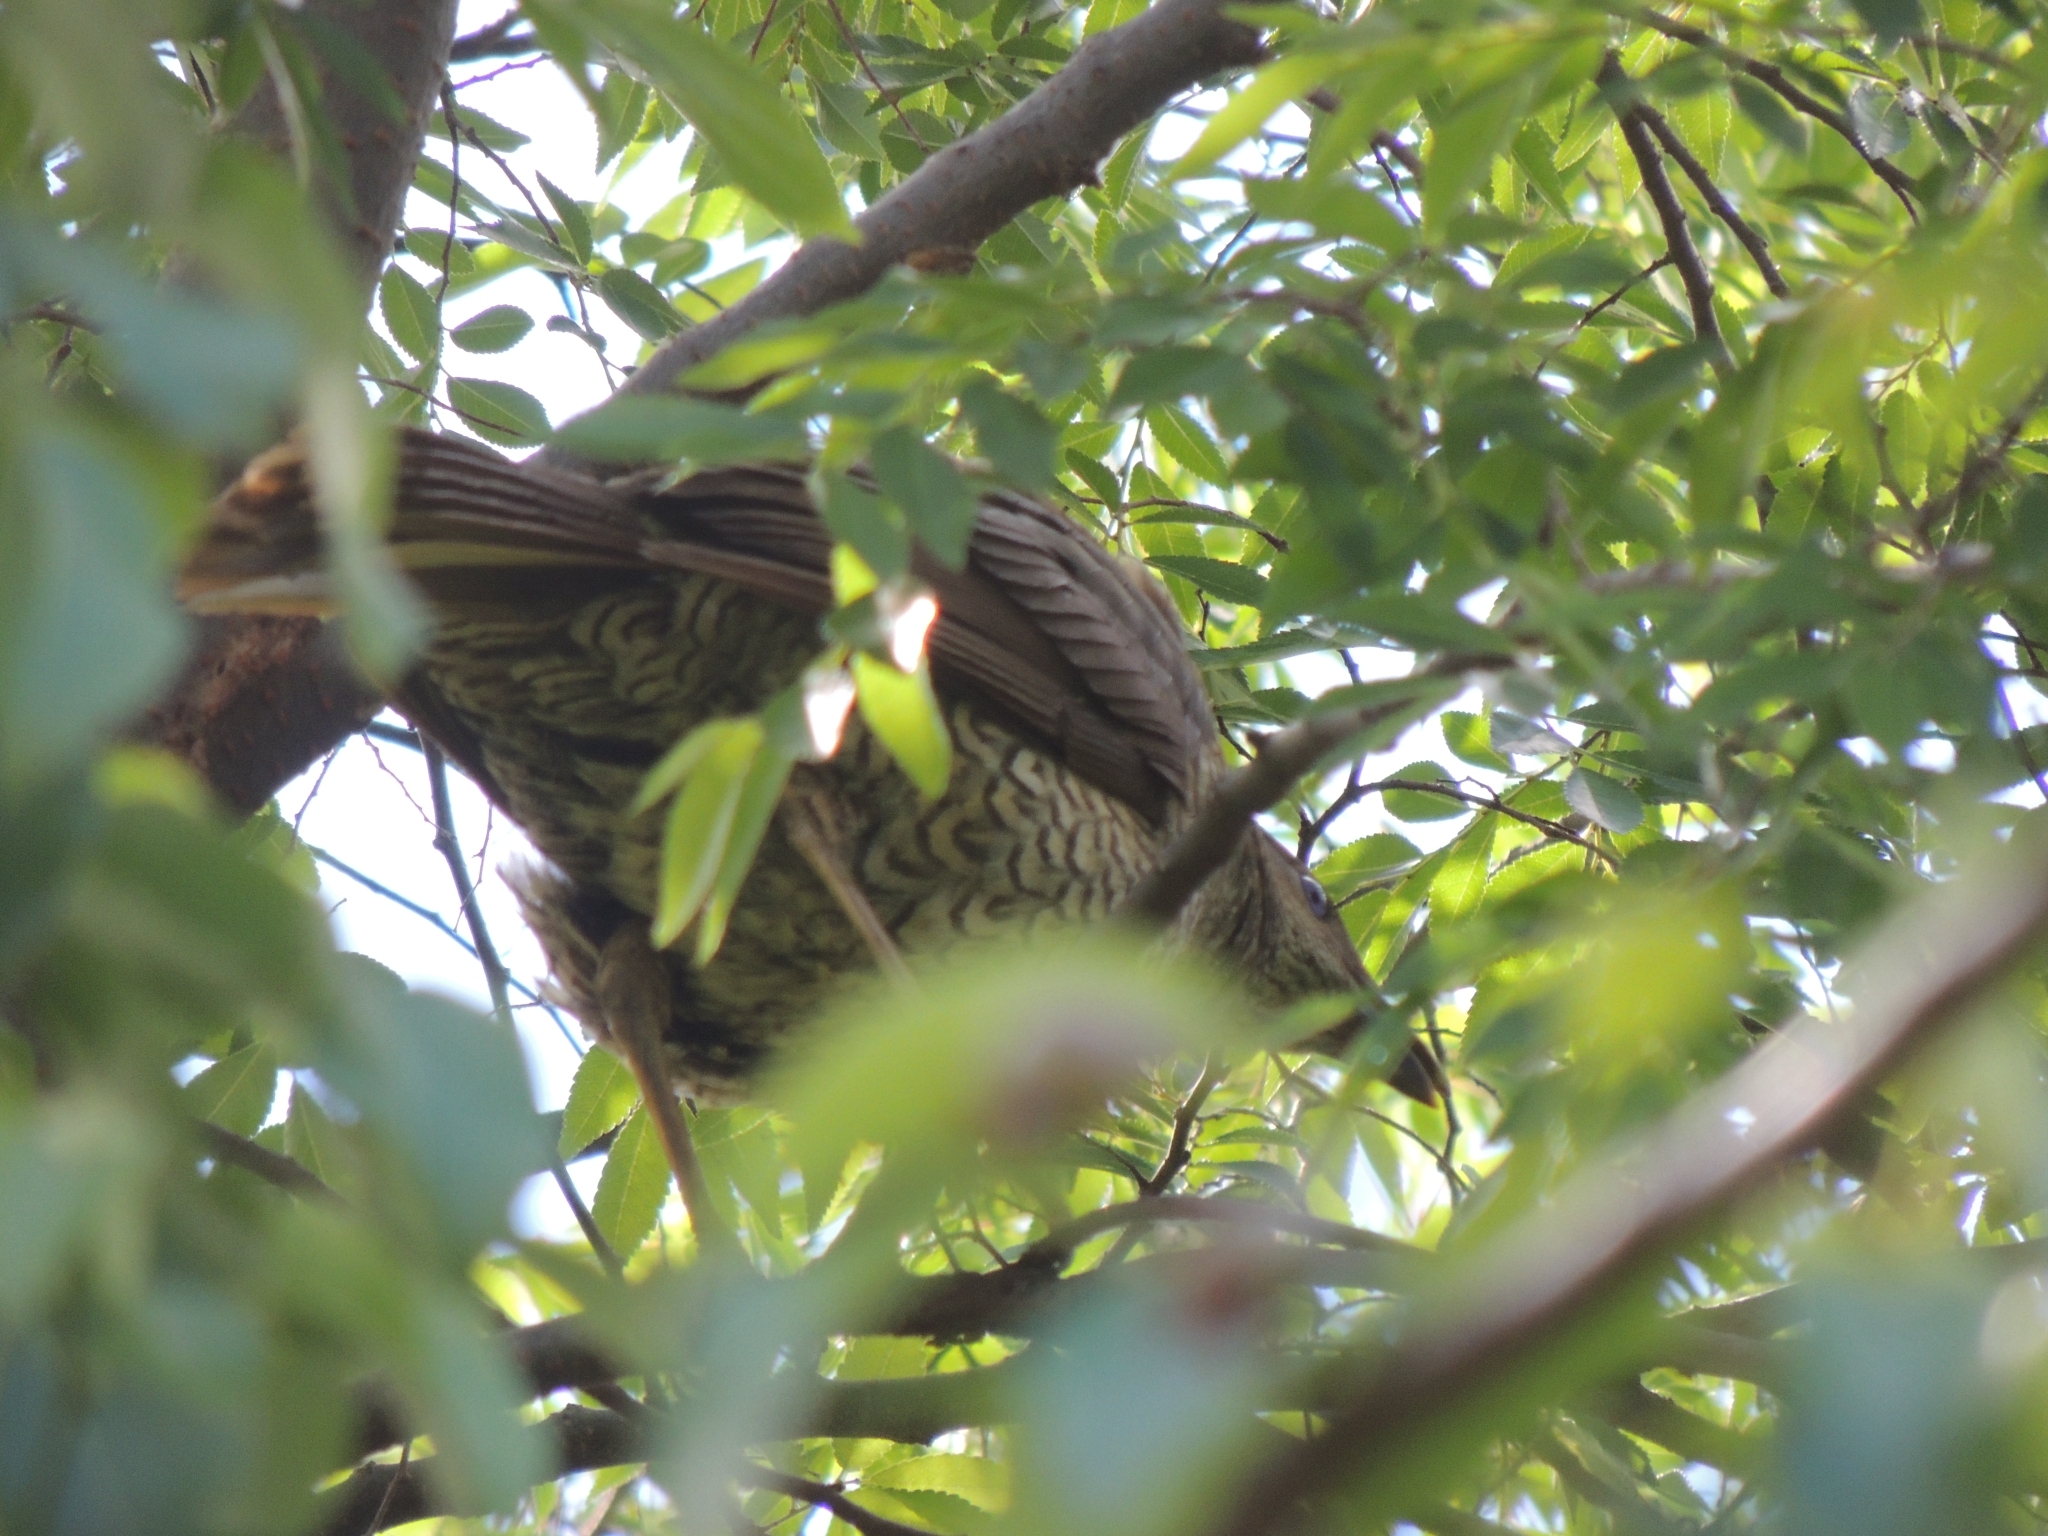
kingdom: Animalia
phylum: Chordata
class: Aves
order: Passeriformes
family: Ptilonorhynchidae
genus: Ptilonorhynchus
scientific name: Ptilonorhynchus violaceus
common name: Satin bowerbird
